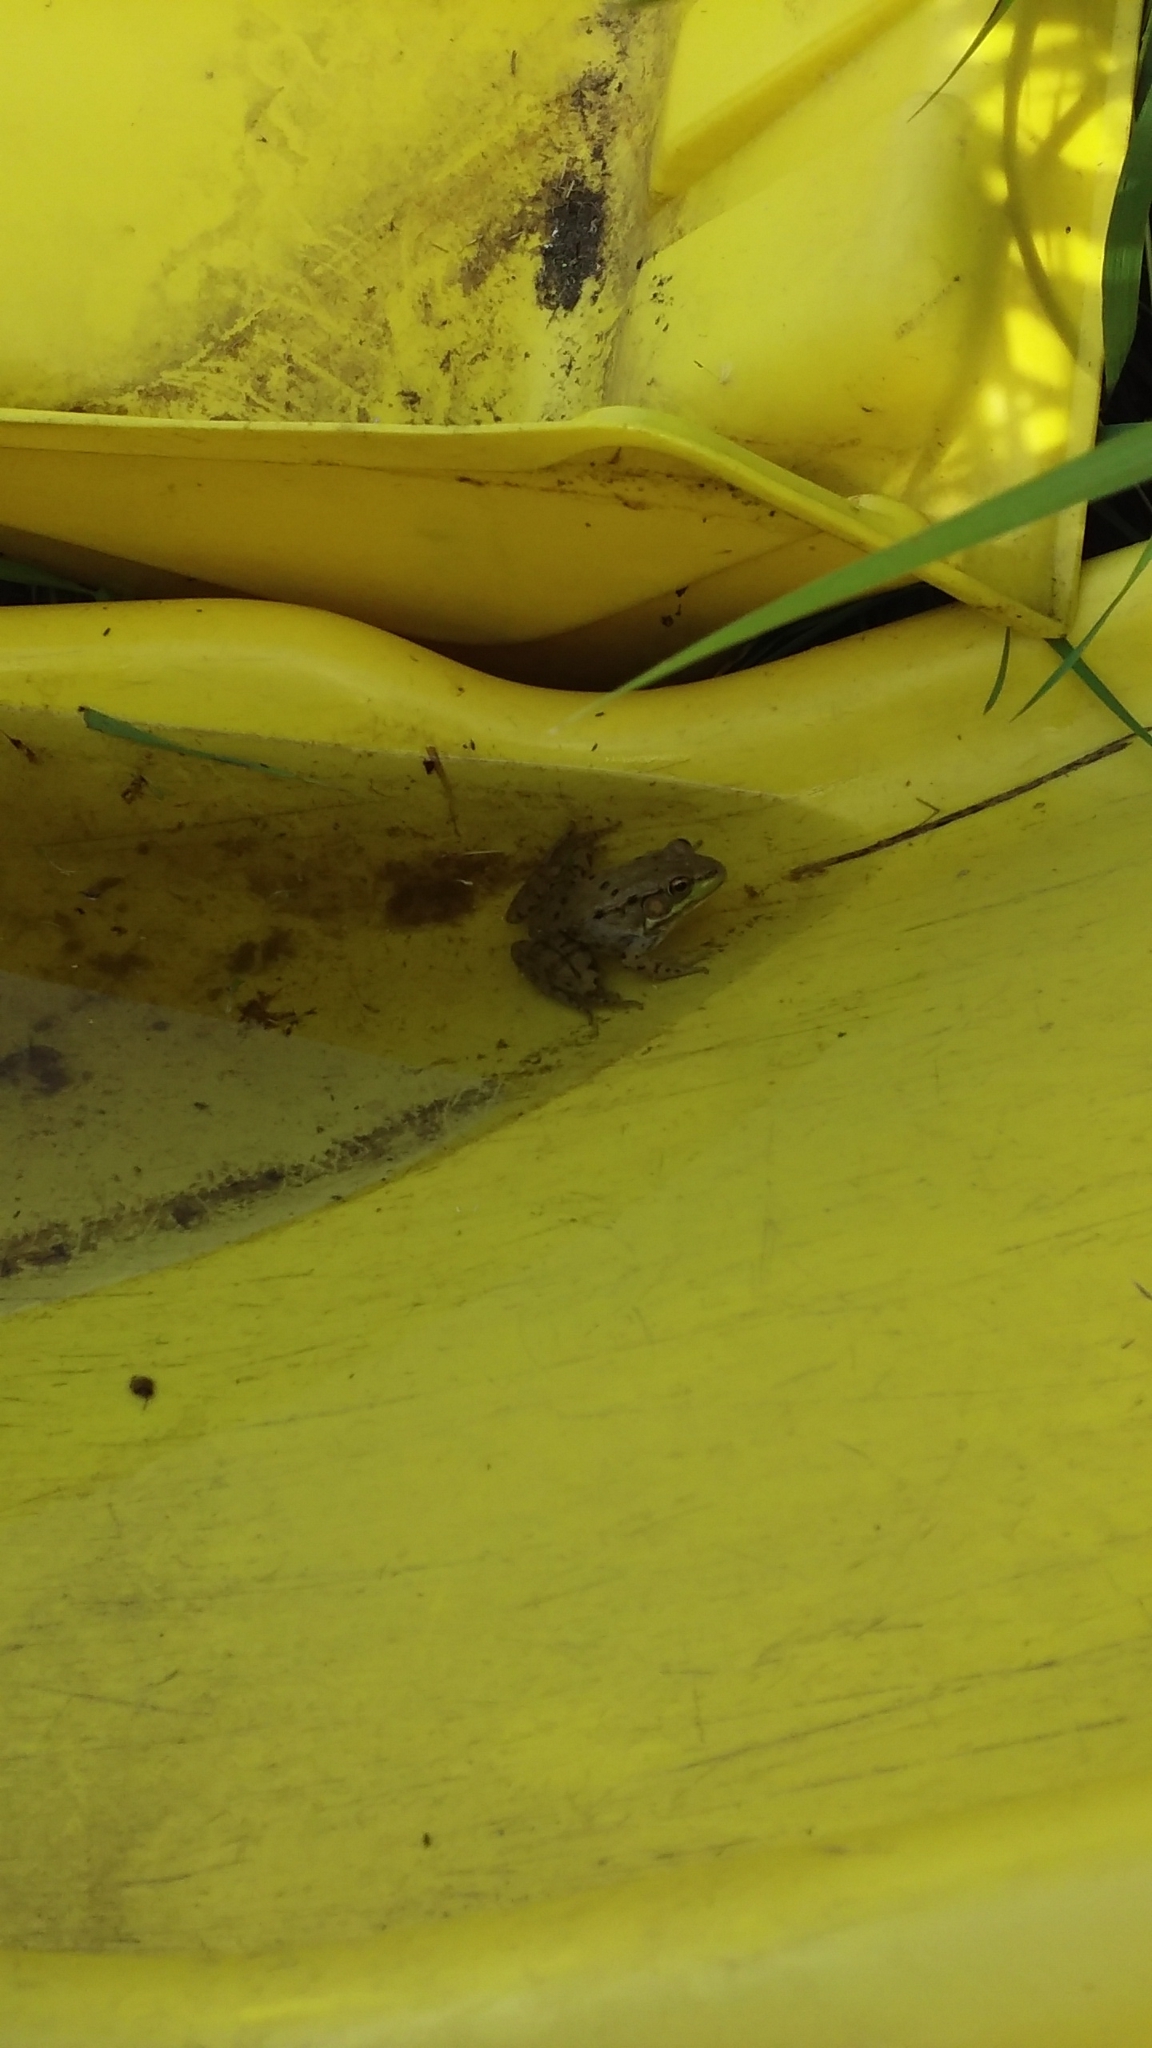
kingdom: Animalia
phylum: Chordata
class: Amphibia
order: Anura
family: Ranidae
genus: Lithobates
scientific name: Lithobates clamitans
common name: Green frog
